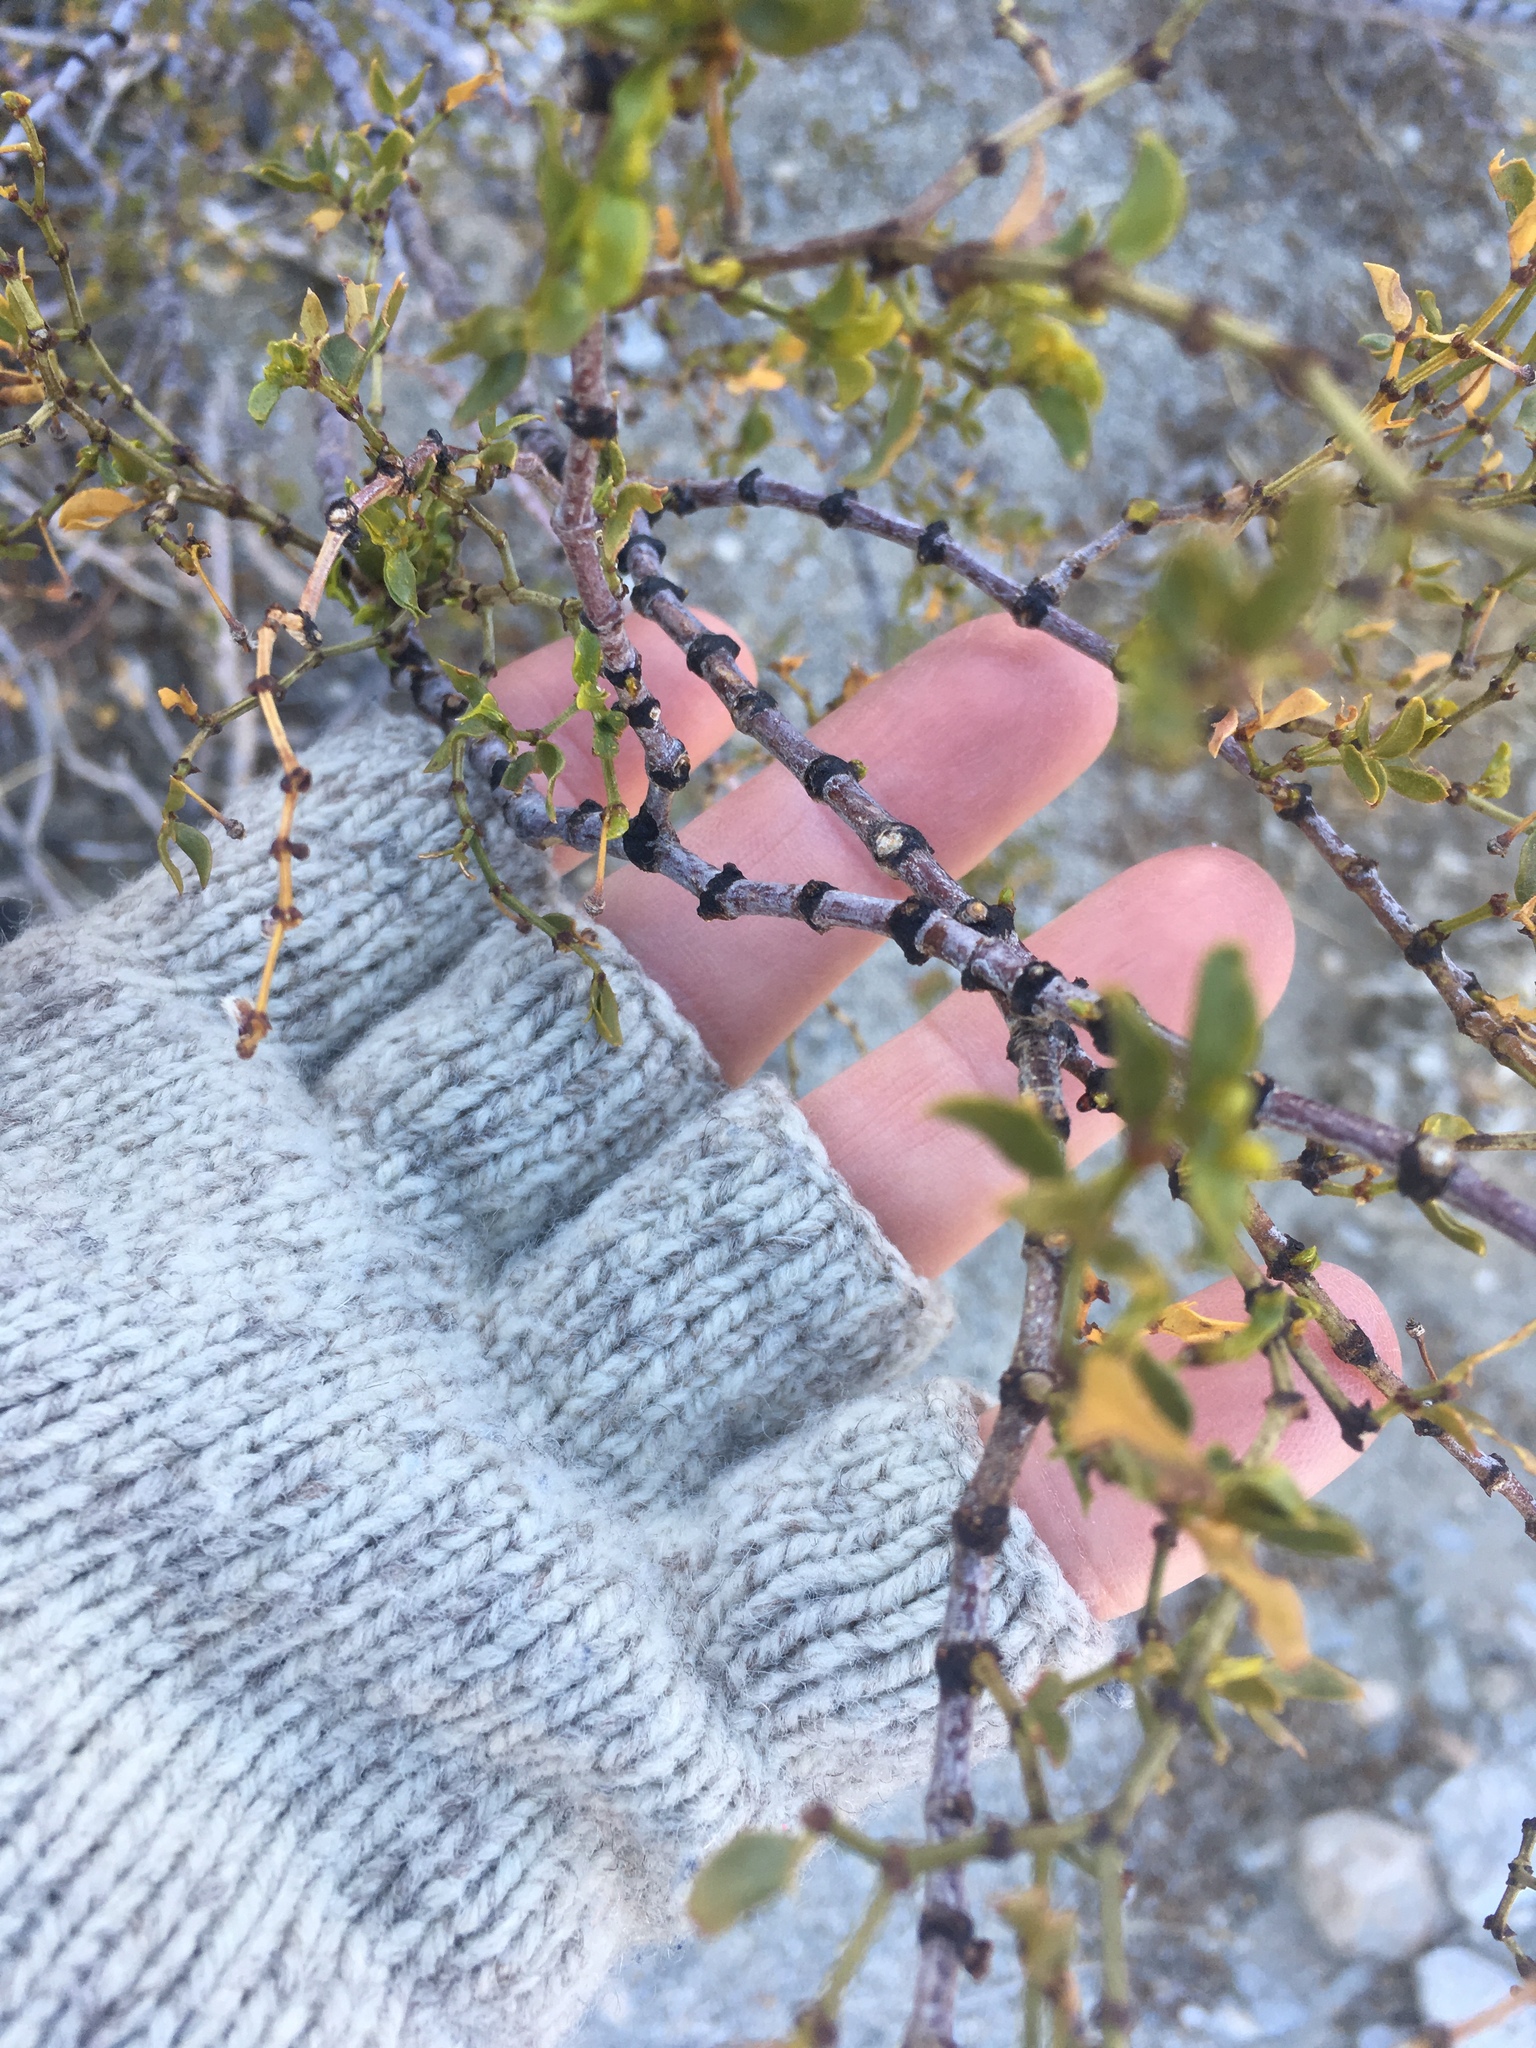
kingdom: Plantae
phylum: Tracheophyta
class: Magnoliopsida
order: Zygophyllales
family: Zygophyllaceae
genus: Larrea
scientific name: Larrea tridentata
